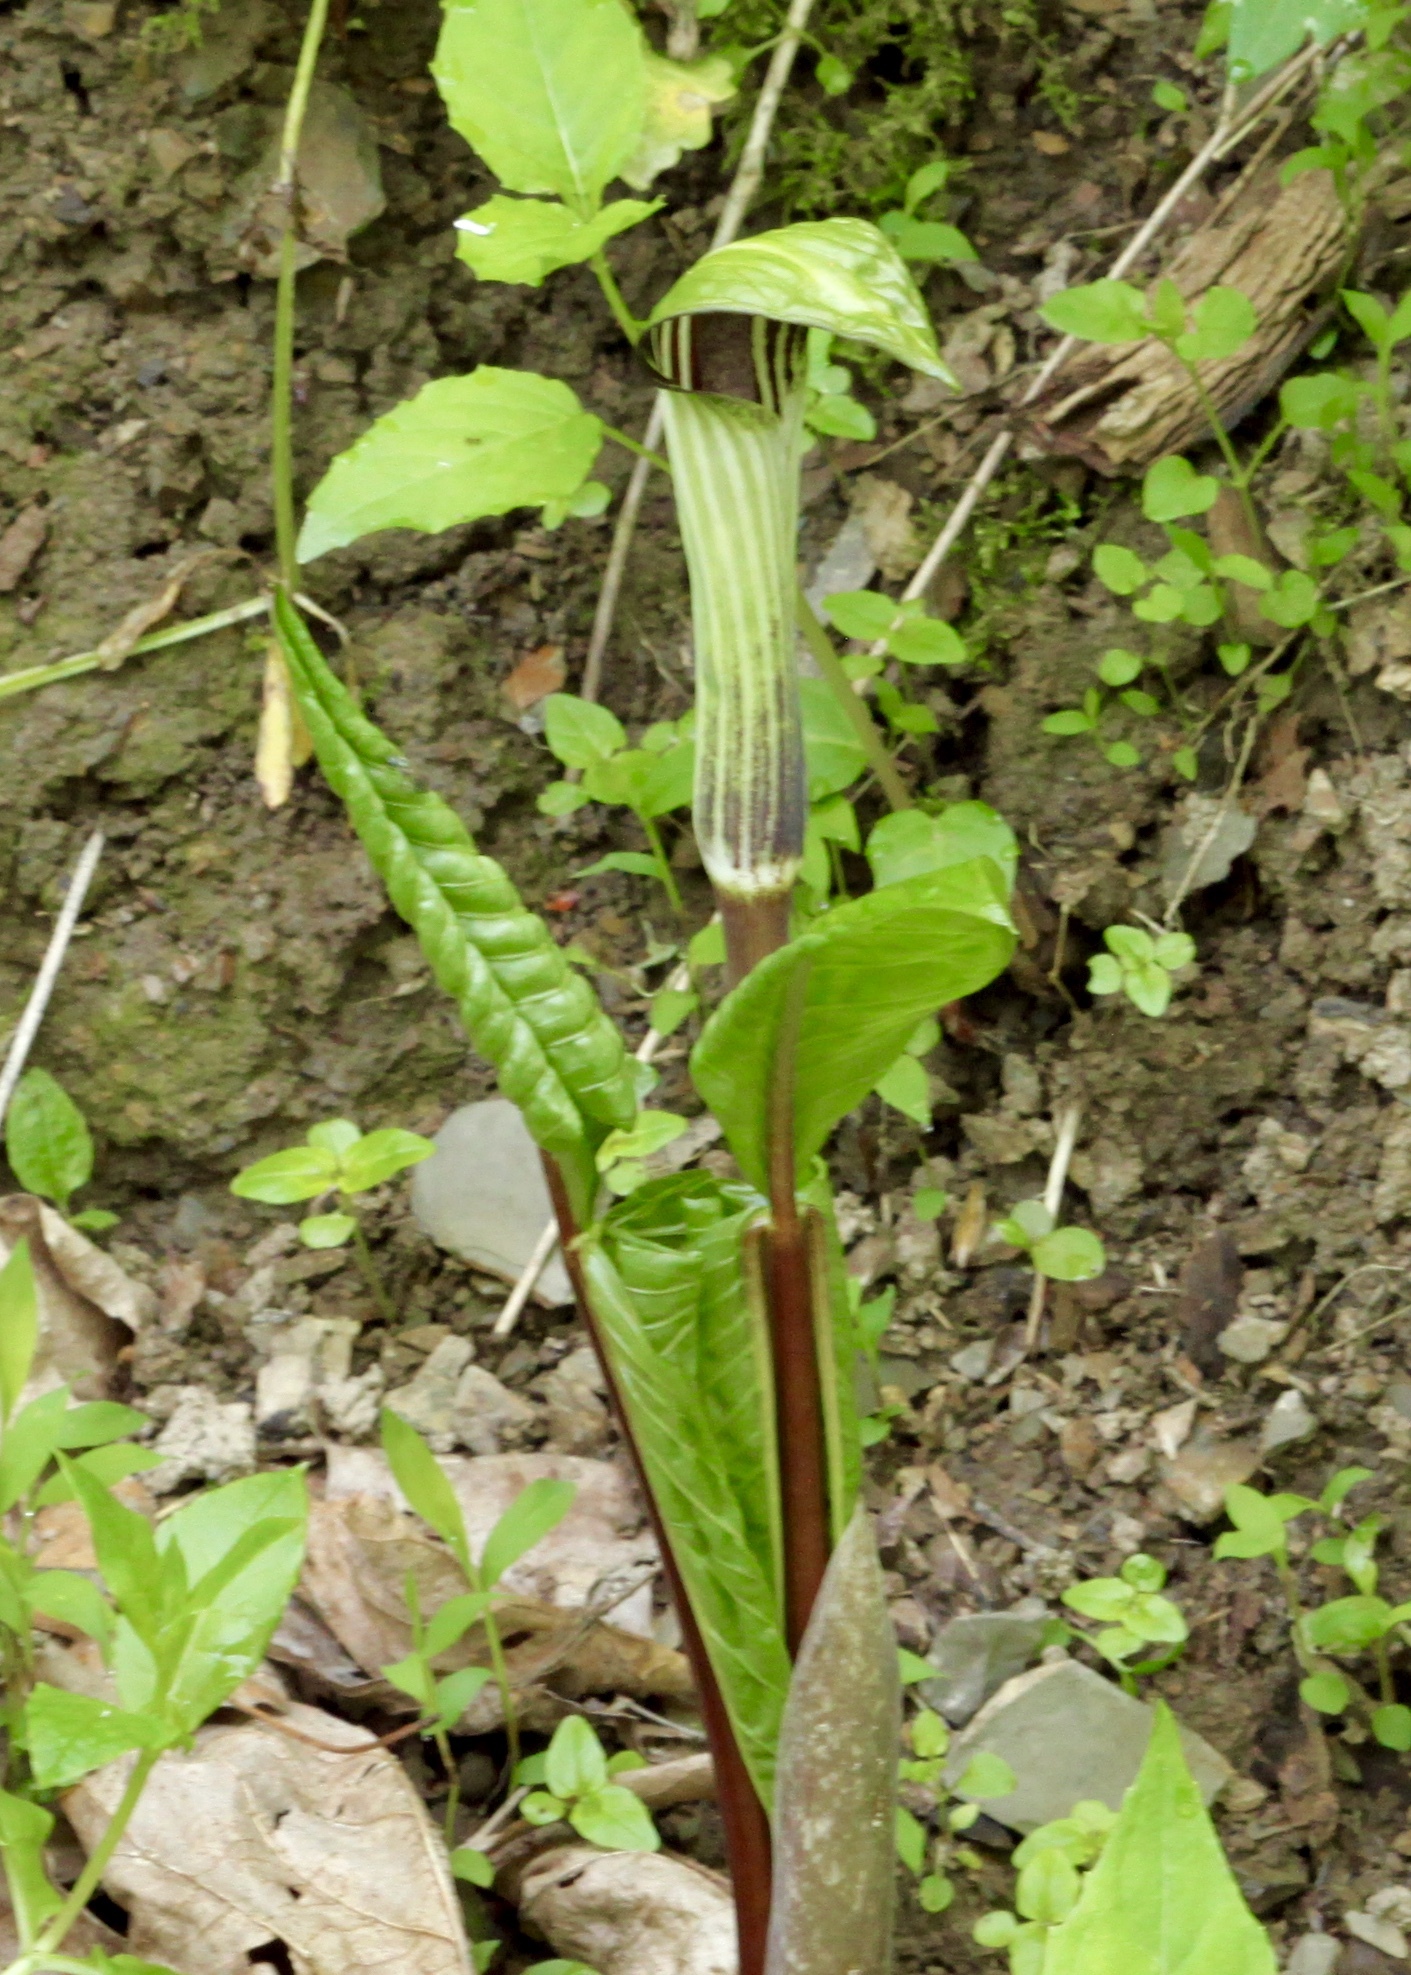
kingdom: Plantae
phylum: Tracheophyta
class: Liliopsida
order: Alismatales
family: Araceae
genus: Arisaema
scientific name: Arisaema triphyllum
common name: Jack-in-the-pulpit
